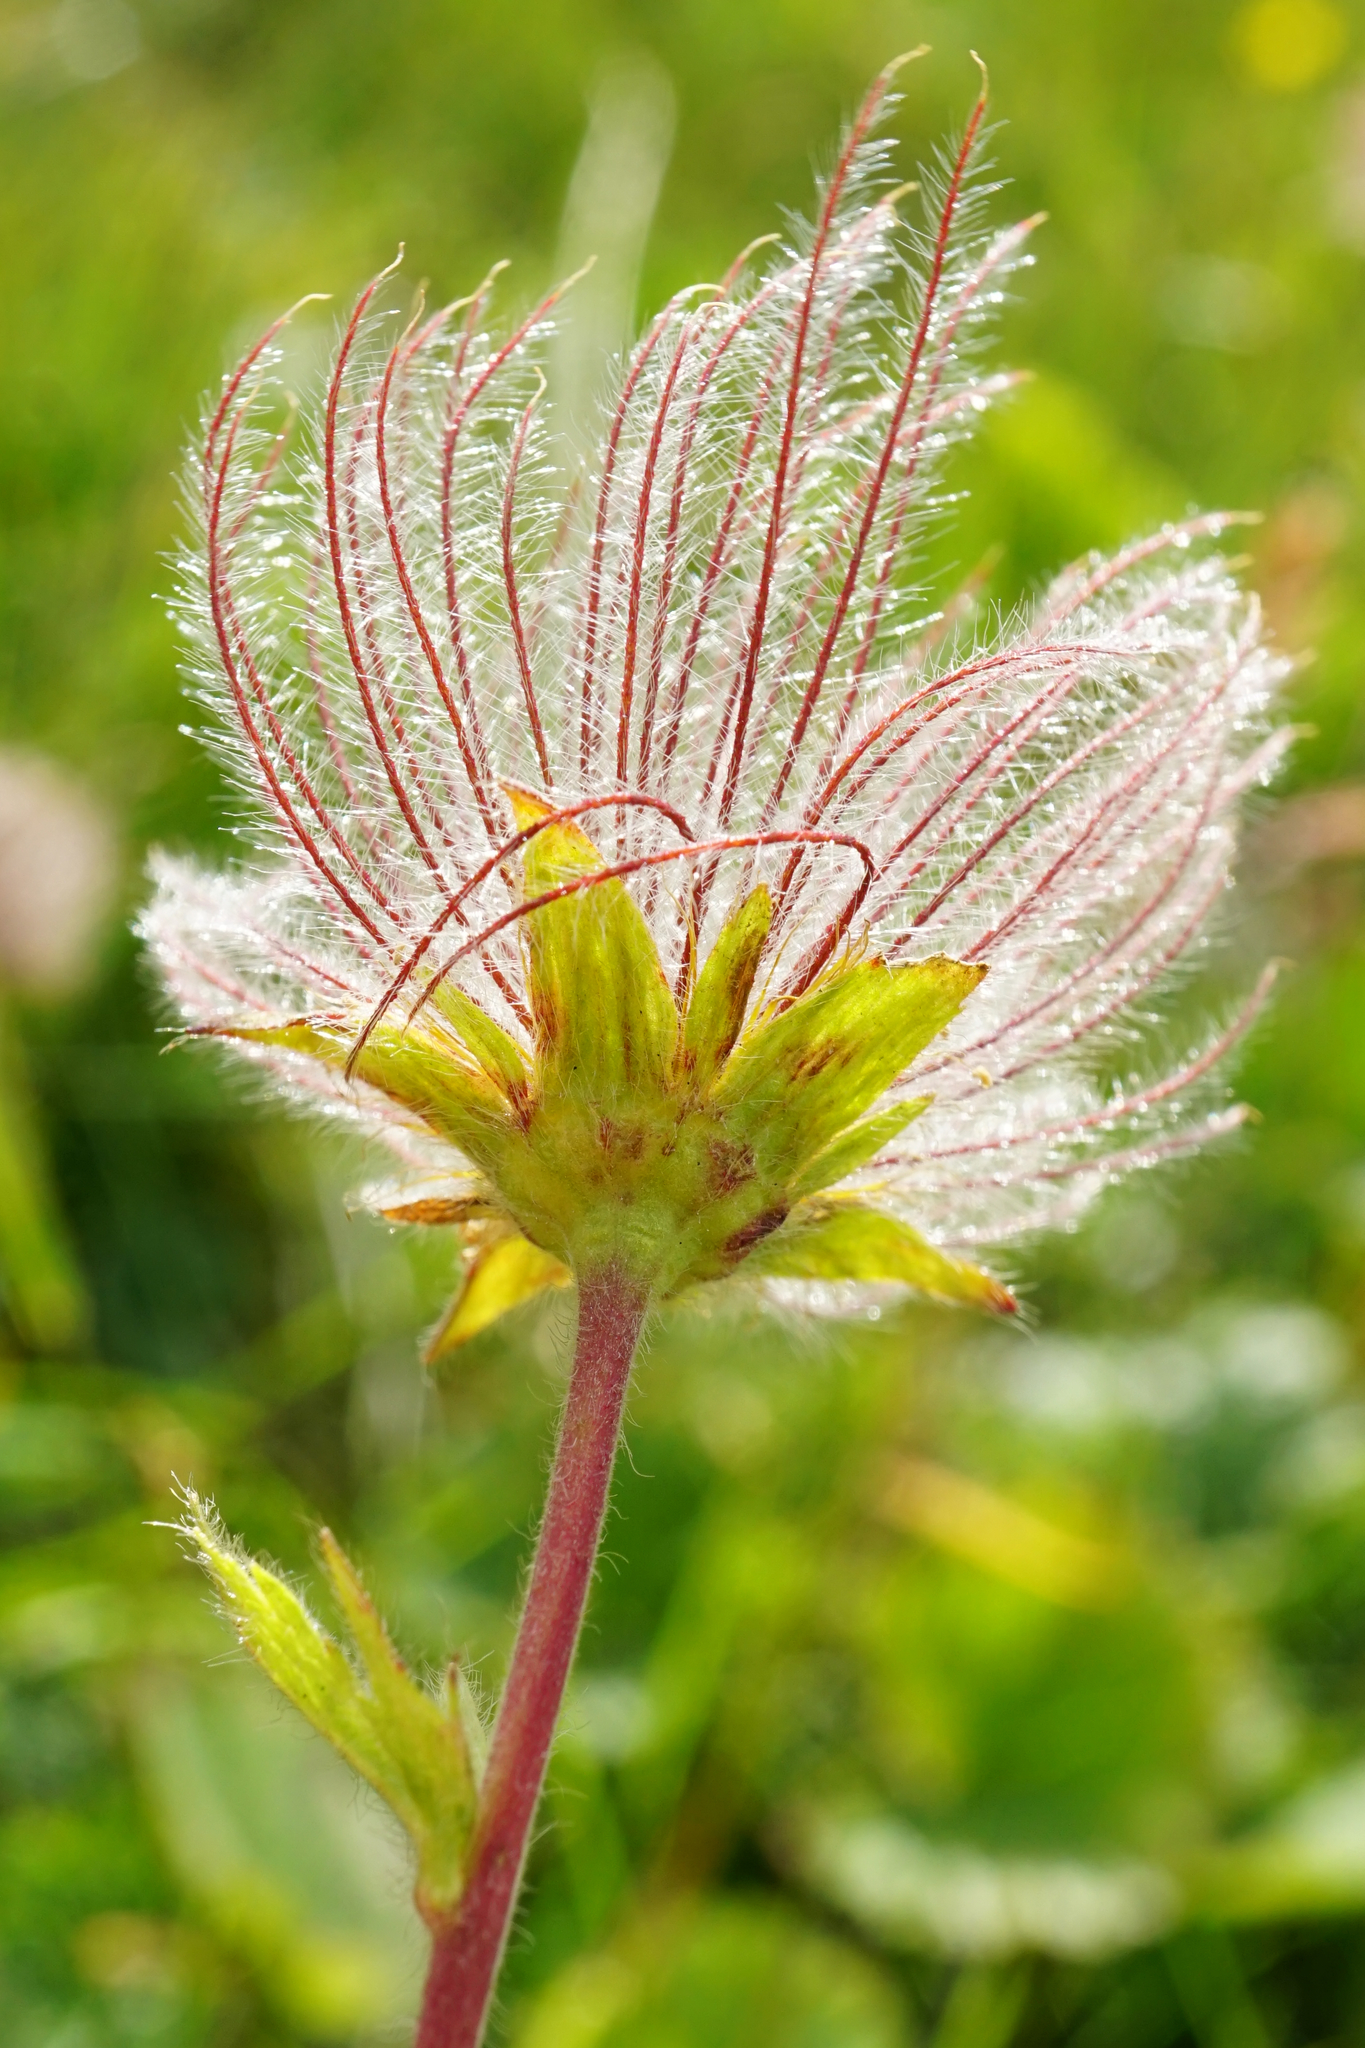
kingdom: Plantae
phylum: Tracheophyta
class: Magnoliopsida
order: Rosales
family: Rosaceae
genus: Geum
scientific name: Geum montanum
